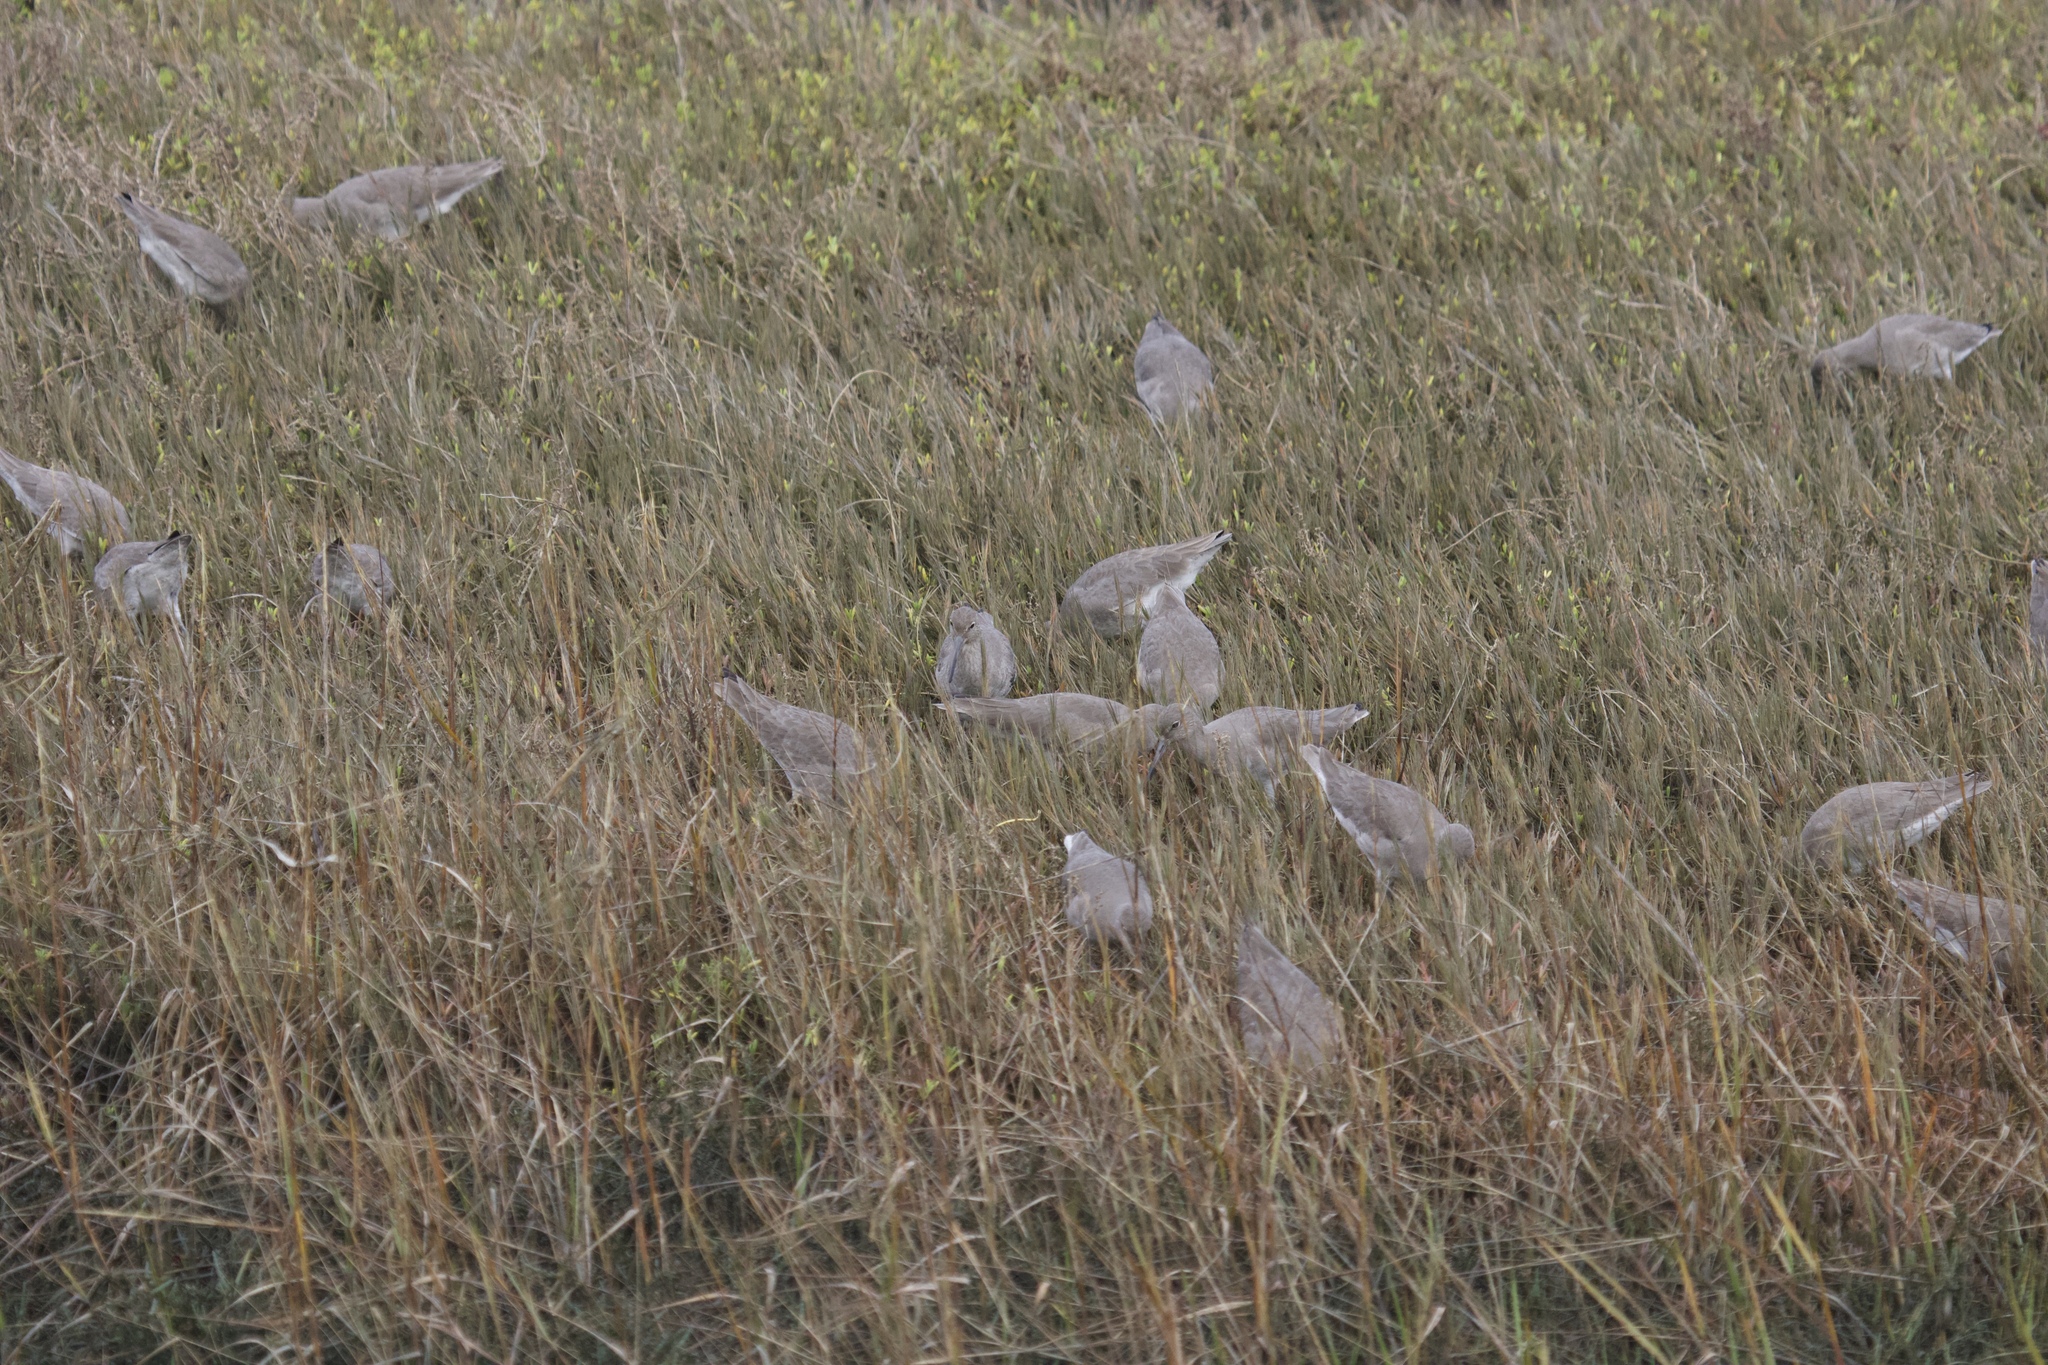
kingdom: Animalia
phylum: Chordata
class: Aves
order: Charadriiformes
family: Scolopacidae
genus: Tringa
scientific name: Tringa semipalmata
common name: Willet
